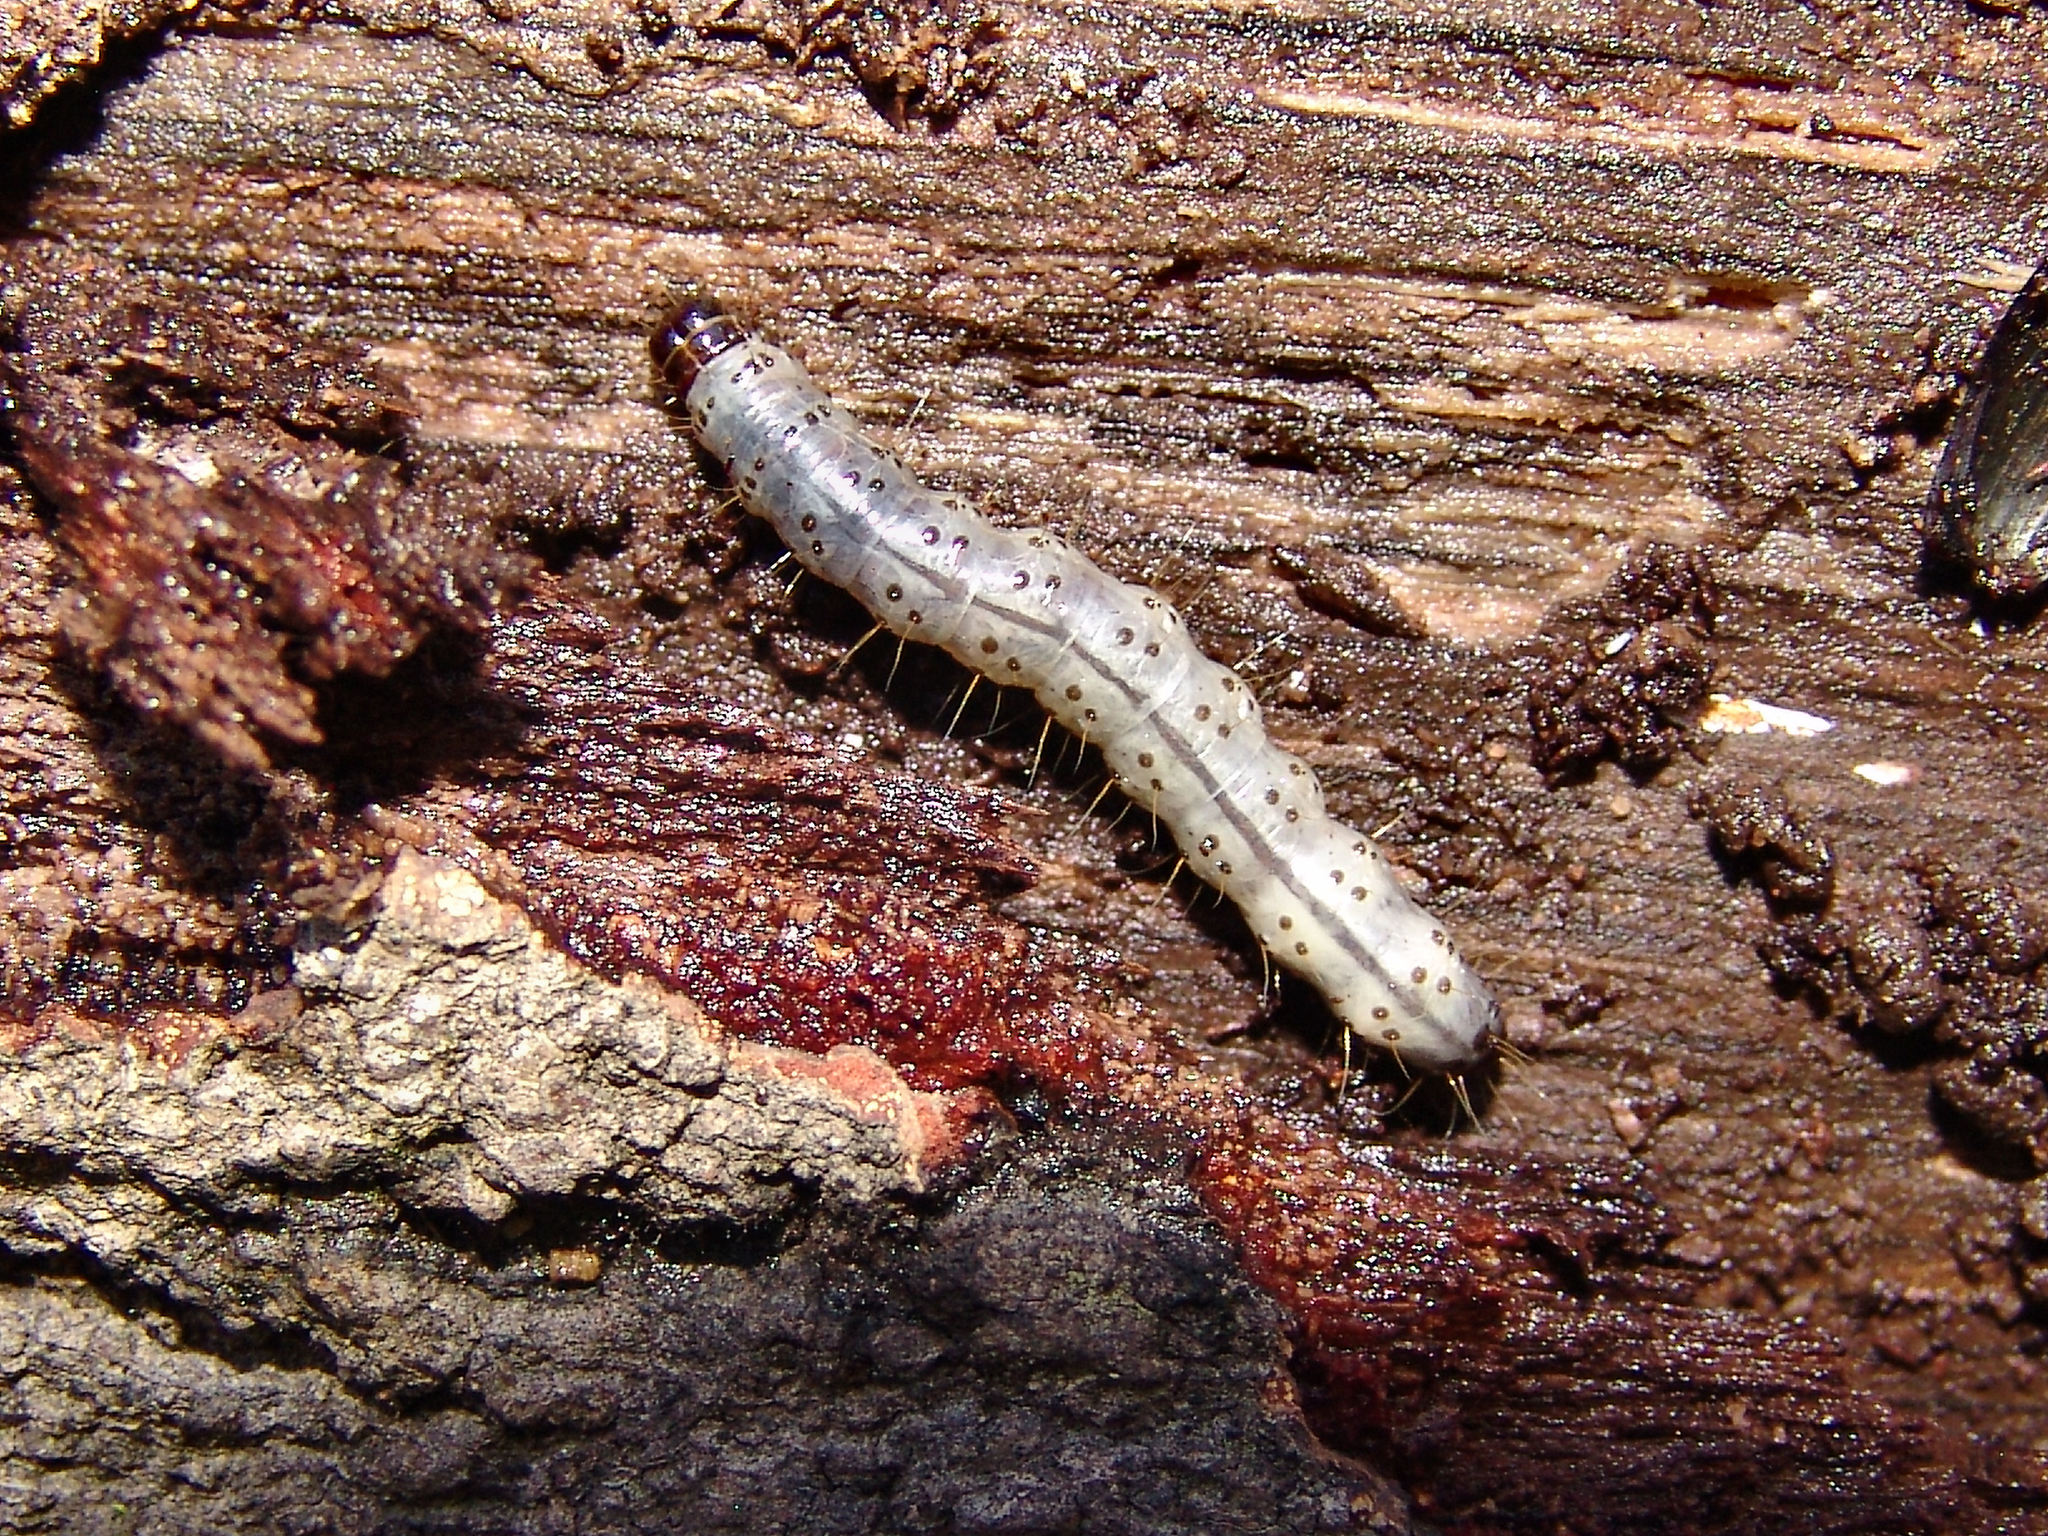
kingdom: Animalia
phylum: Arthropoda
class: Insecta
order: Lepidoptera
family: Erebidae
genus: Scolecocampa
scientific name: Scolecocampa liburna
